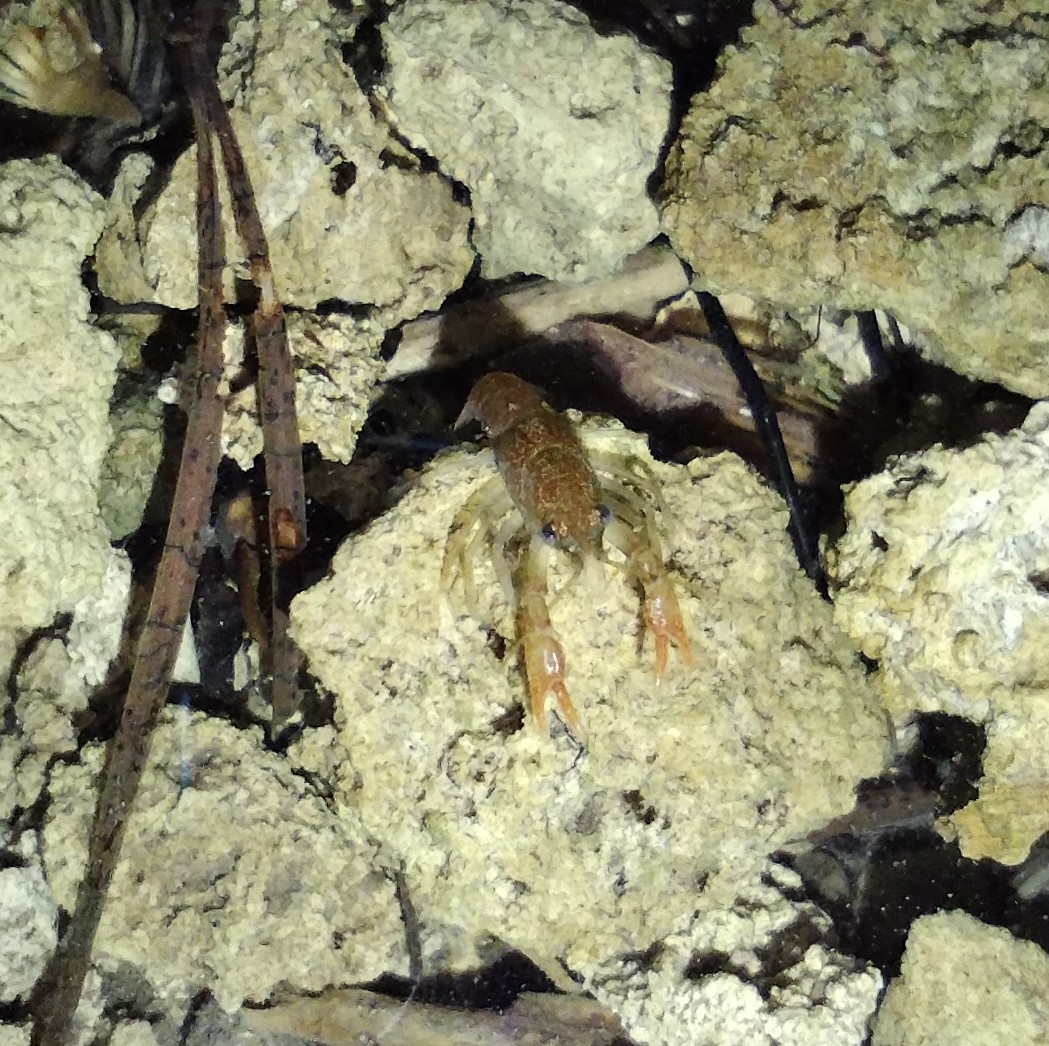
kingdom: Animalia
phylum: Arthropoda
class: Malacostraca
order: Decapoda
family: Astacidae
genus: Austropotamobius
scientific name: Austropotamobius torrentium
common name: Stone crayfish
